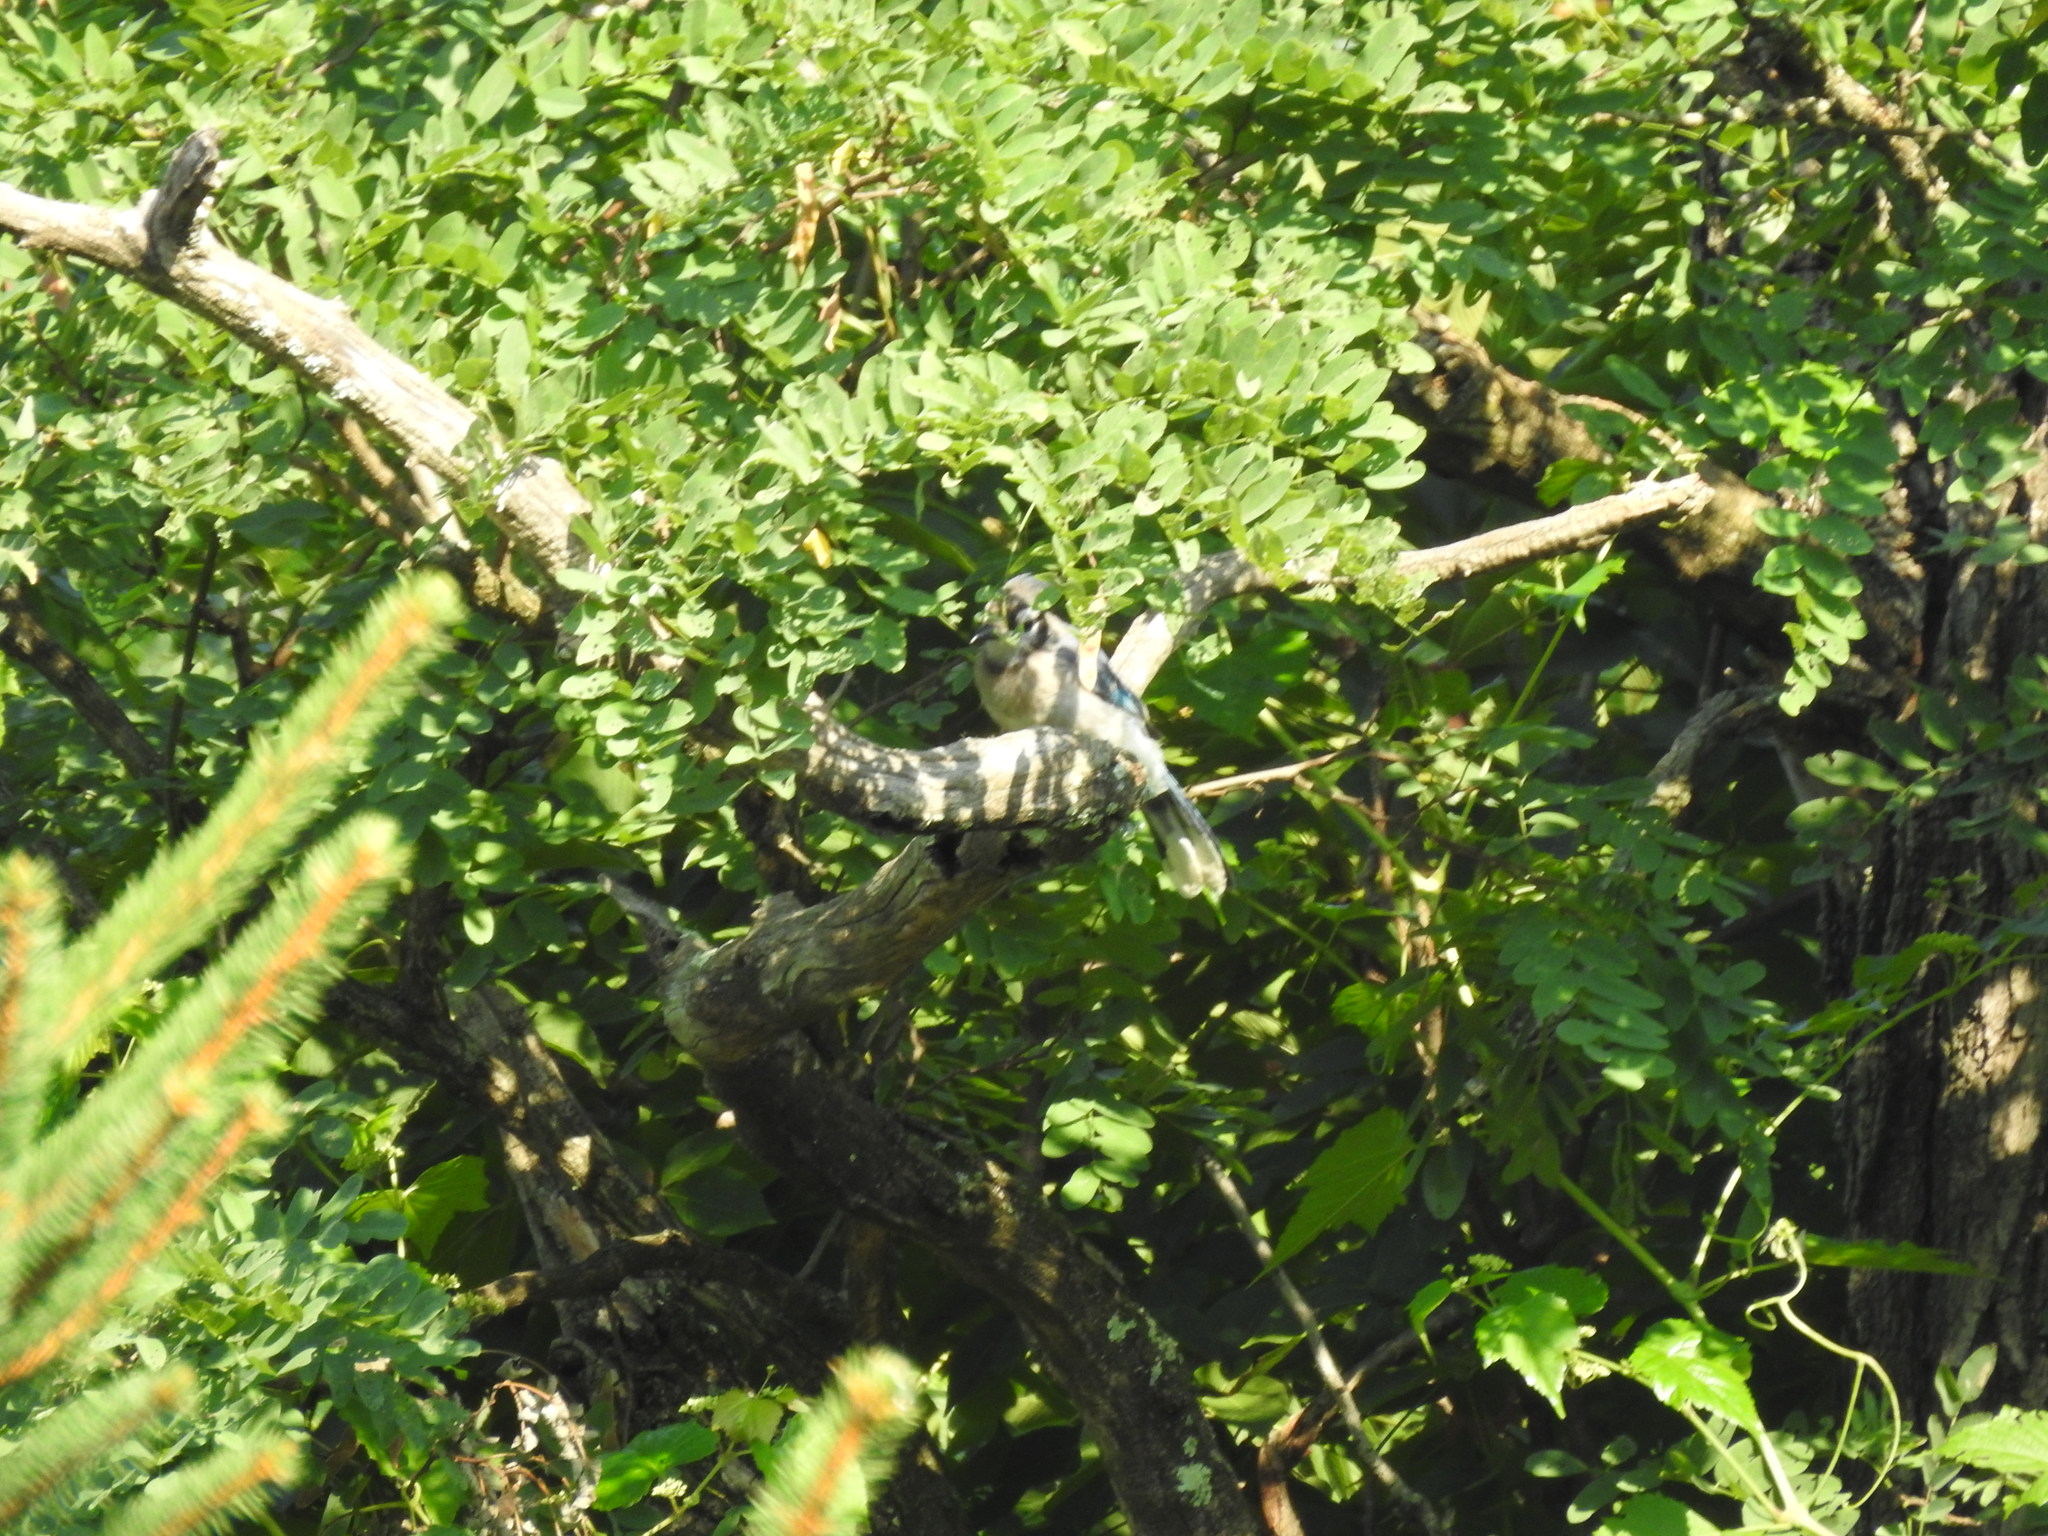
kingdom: Animalia
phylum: Chordata
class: Aves
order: Passeriformes
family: Corvidae
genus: Cyanocitta
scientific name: Cyanocitta cristata
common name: Blue jay
